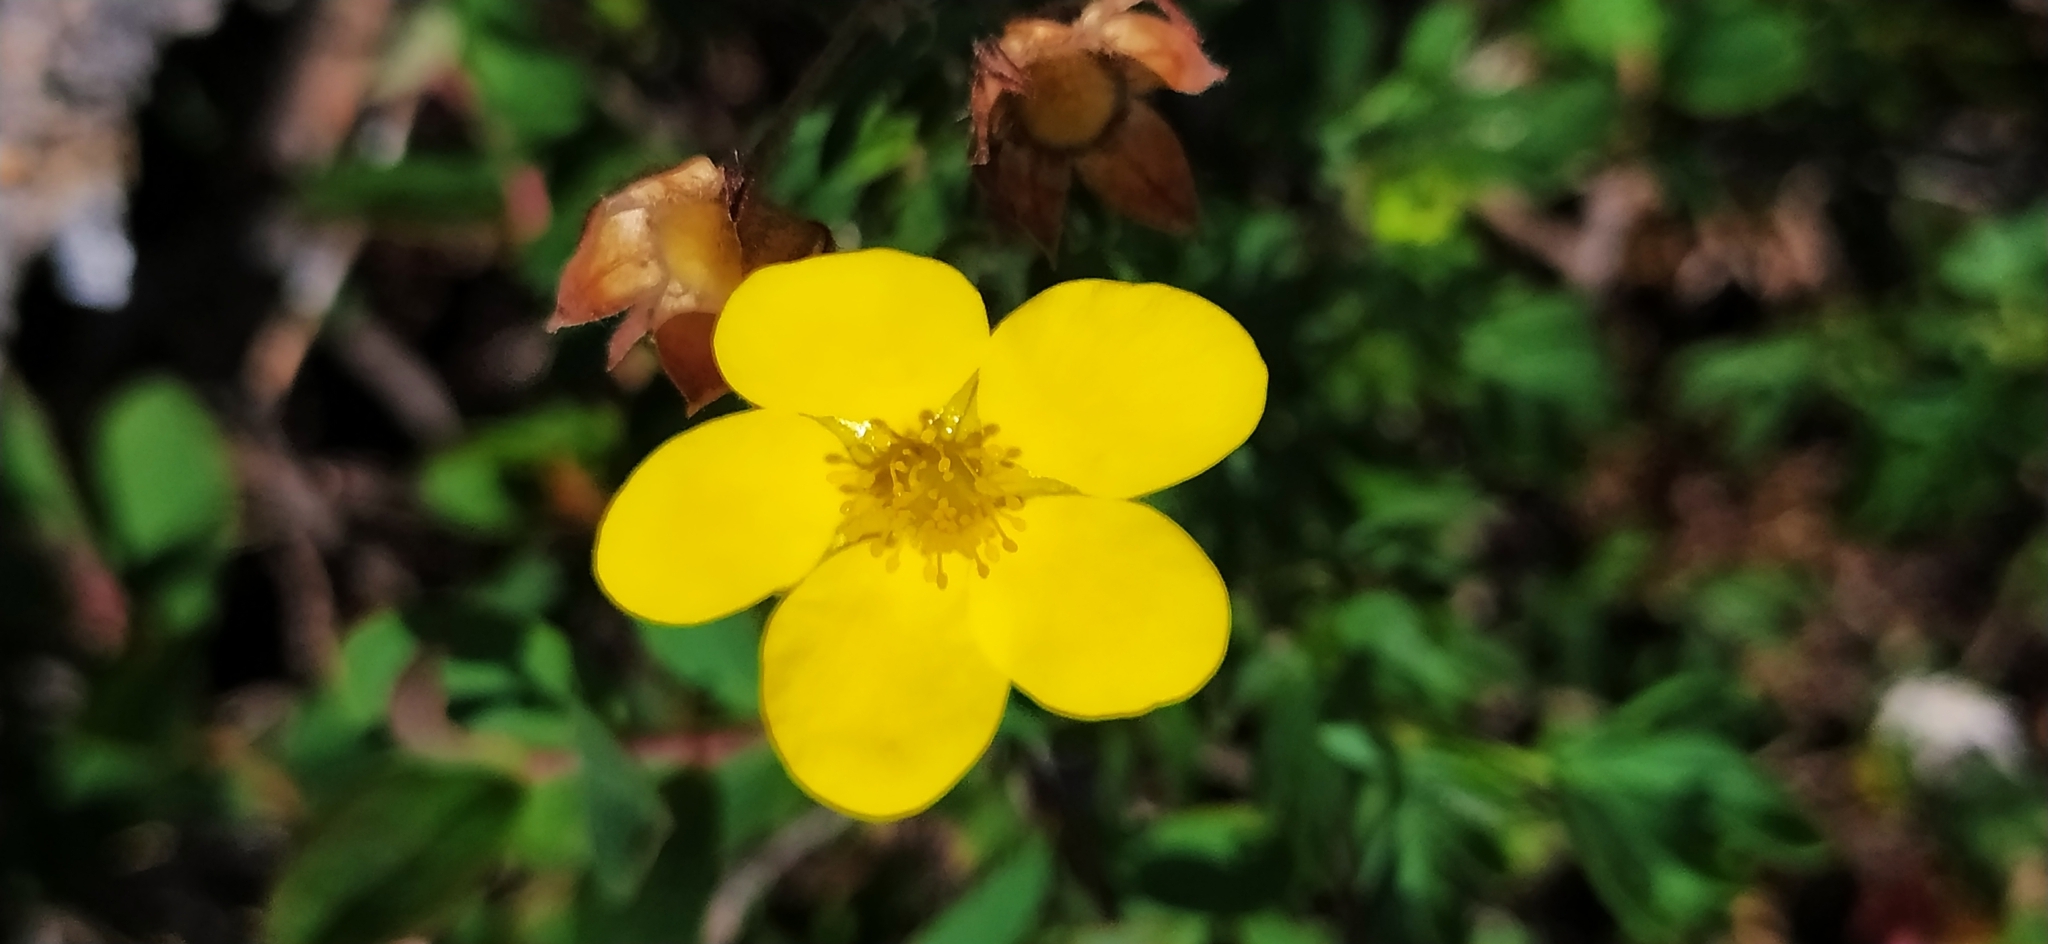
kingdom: Plantae
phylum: Tracheophyta
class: Magnoliopsida
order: Rosales
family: Rosaceae
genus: Dasiphora
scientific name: Dasiphora fruticosa
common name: Shrubby cinquefoil
